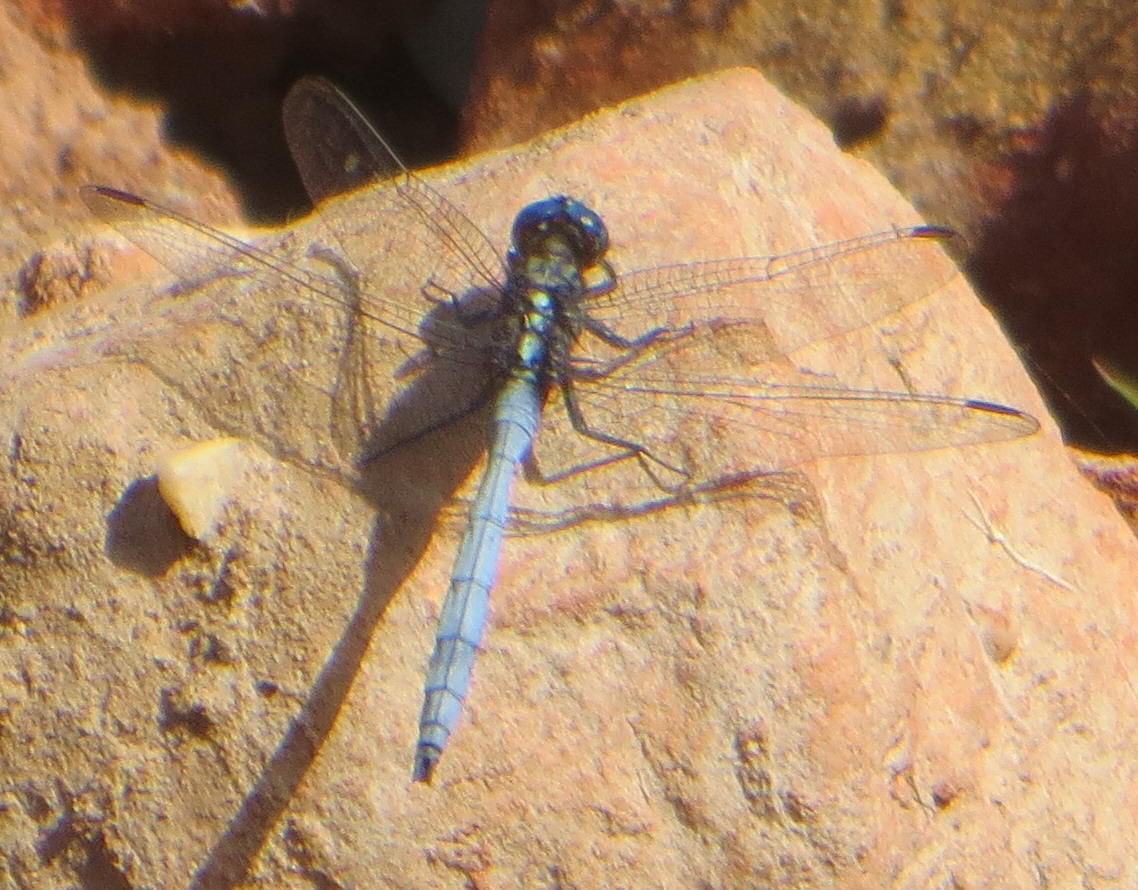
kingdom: Animalia
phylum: Arthropoda
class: Insecta
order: Odonata
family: Libellulidae
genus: Orthetrum
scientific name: Orthetrum julia
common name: Julia skimmer
